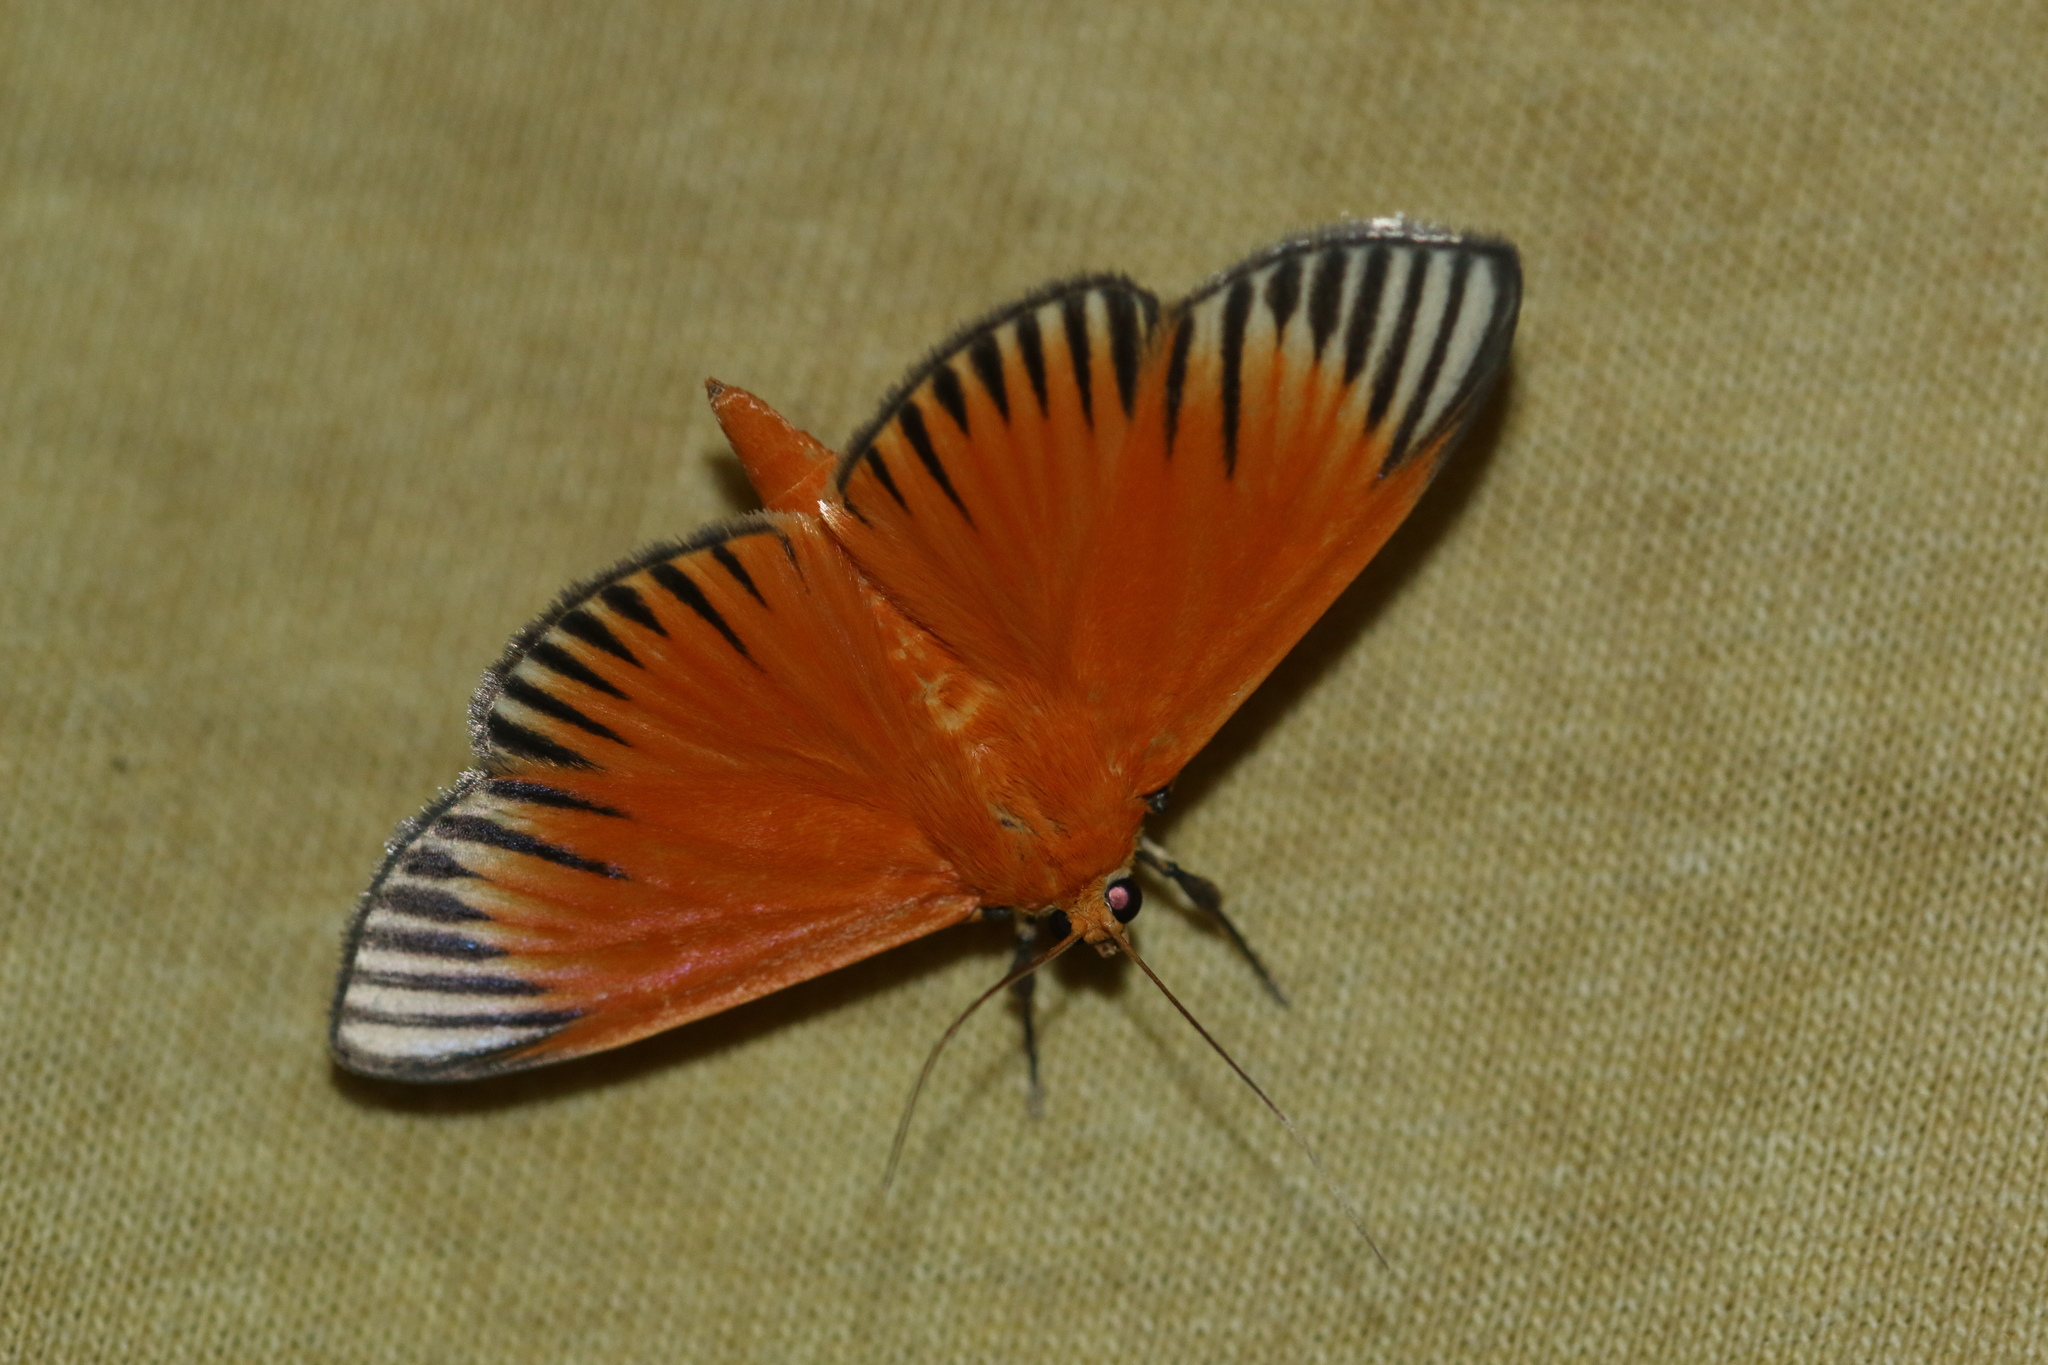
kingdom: Animalia
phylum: Arthropoda
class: Insecta
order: Lepidoptera
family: Crambidae
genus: Phostria
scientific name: Phostria mapetalis
